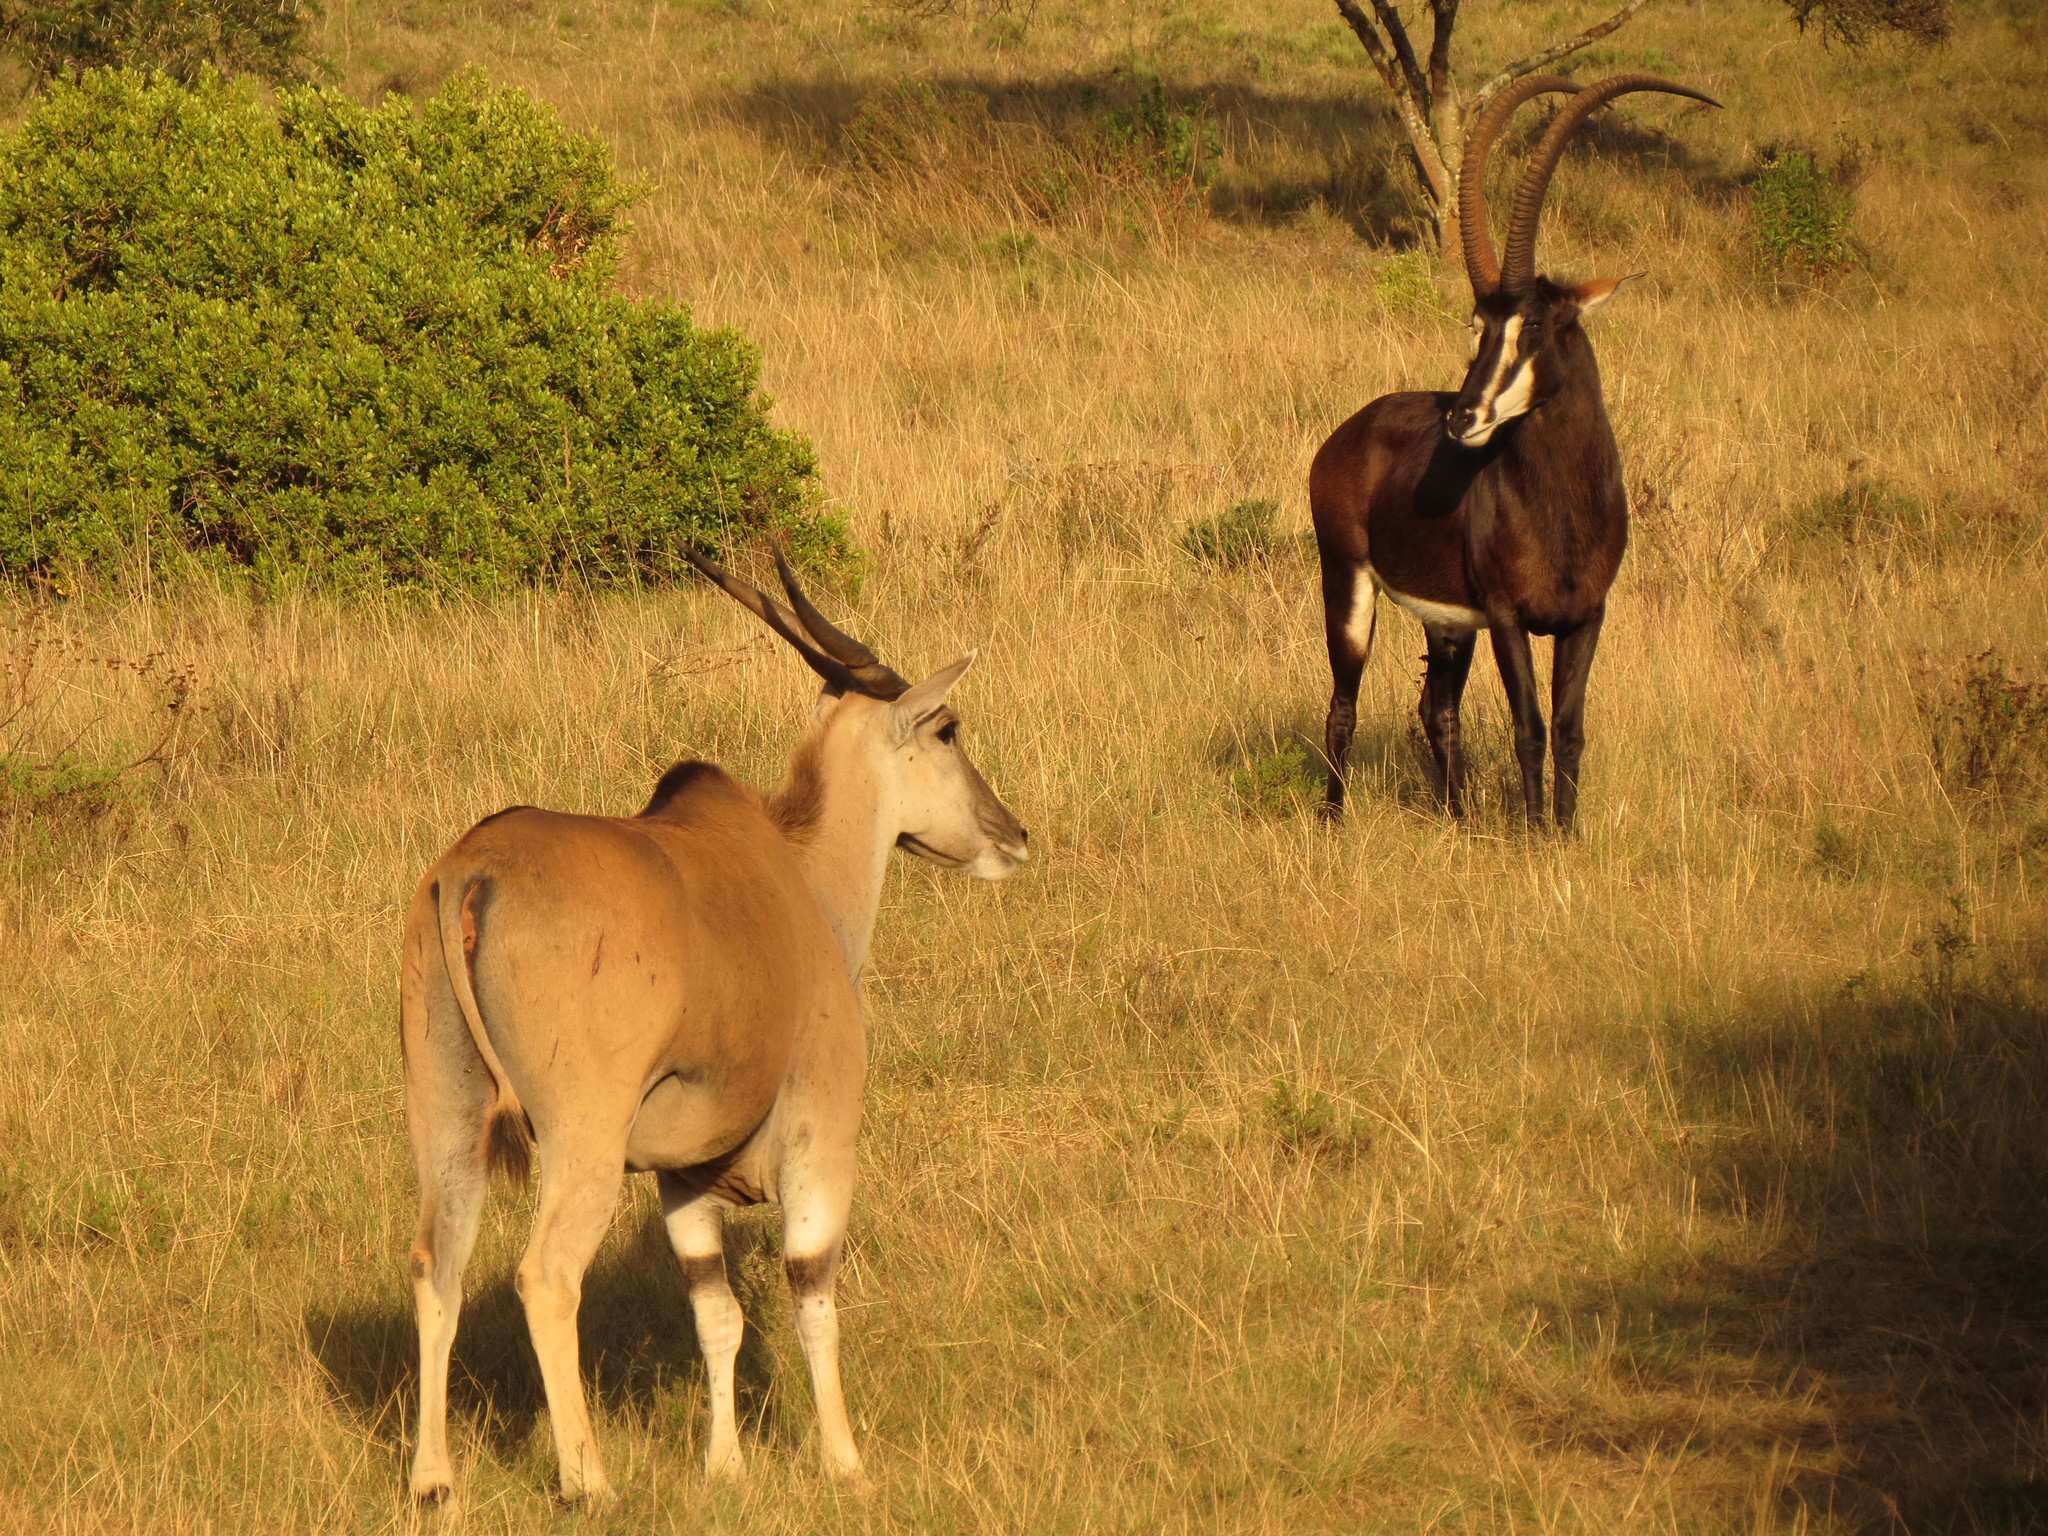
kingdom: Animalia
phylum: Chordata
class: Mammalia
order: Artiodactyla
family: Bovidae
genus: Hippotragus
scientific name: Hippotragus niger
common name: Sable antelope
